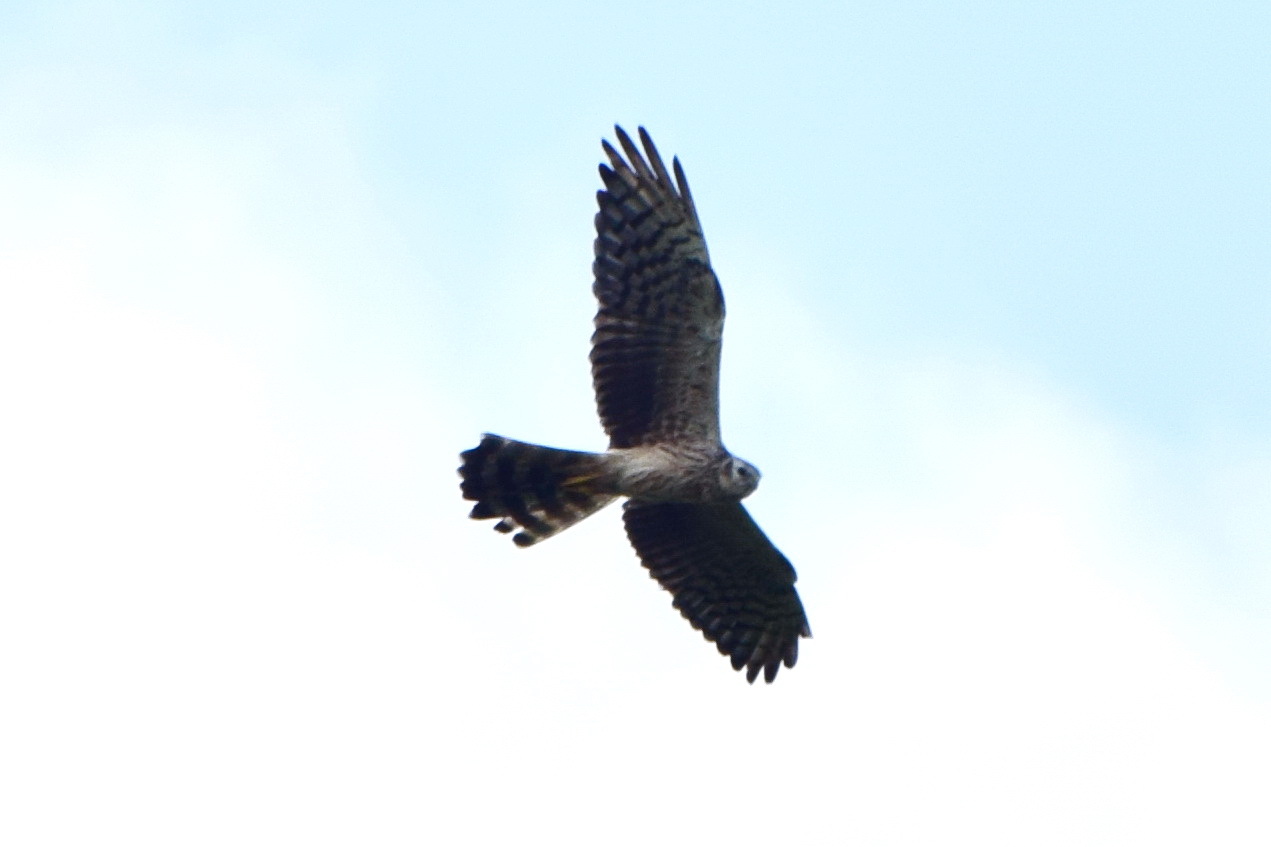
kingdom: Animalia
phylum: Chordata
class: Aves
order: Accipitriformes
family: Accipitridae
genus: Circus
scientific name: Circus pygargus
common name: Montagu's harrier
